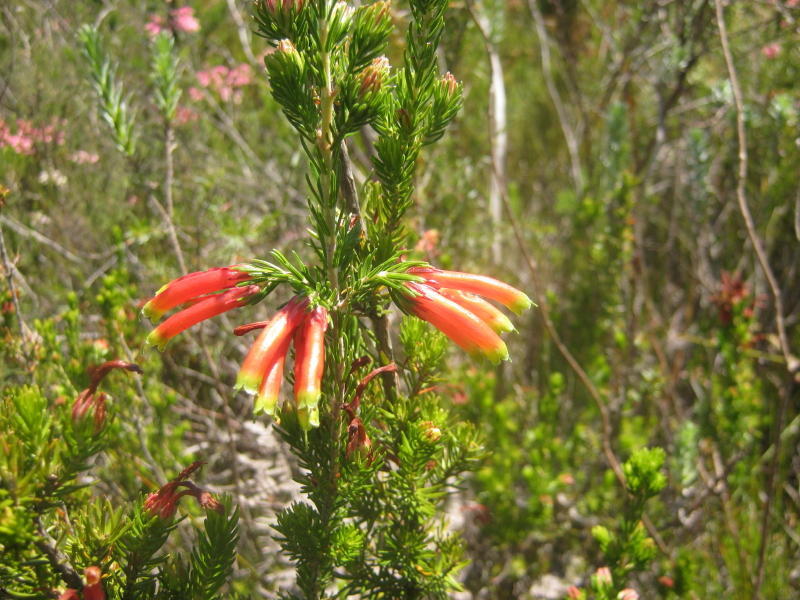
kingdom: Plantae
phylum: Tracheophyta
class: Magnoliopsida
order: Ericales
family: Ericaceae
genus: Erica
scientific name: Erica unicolor
